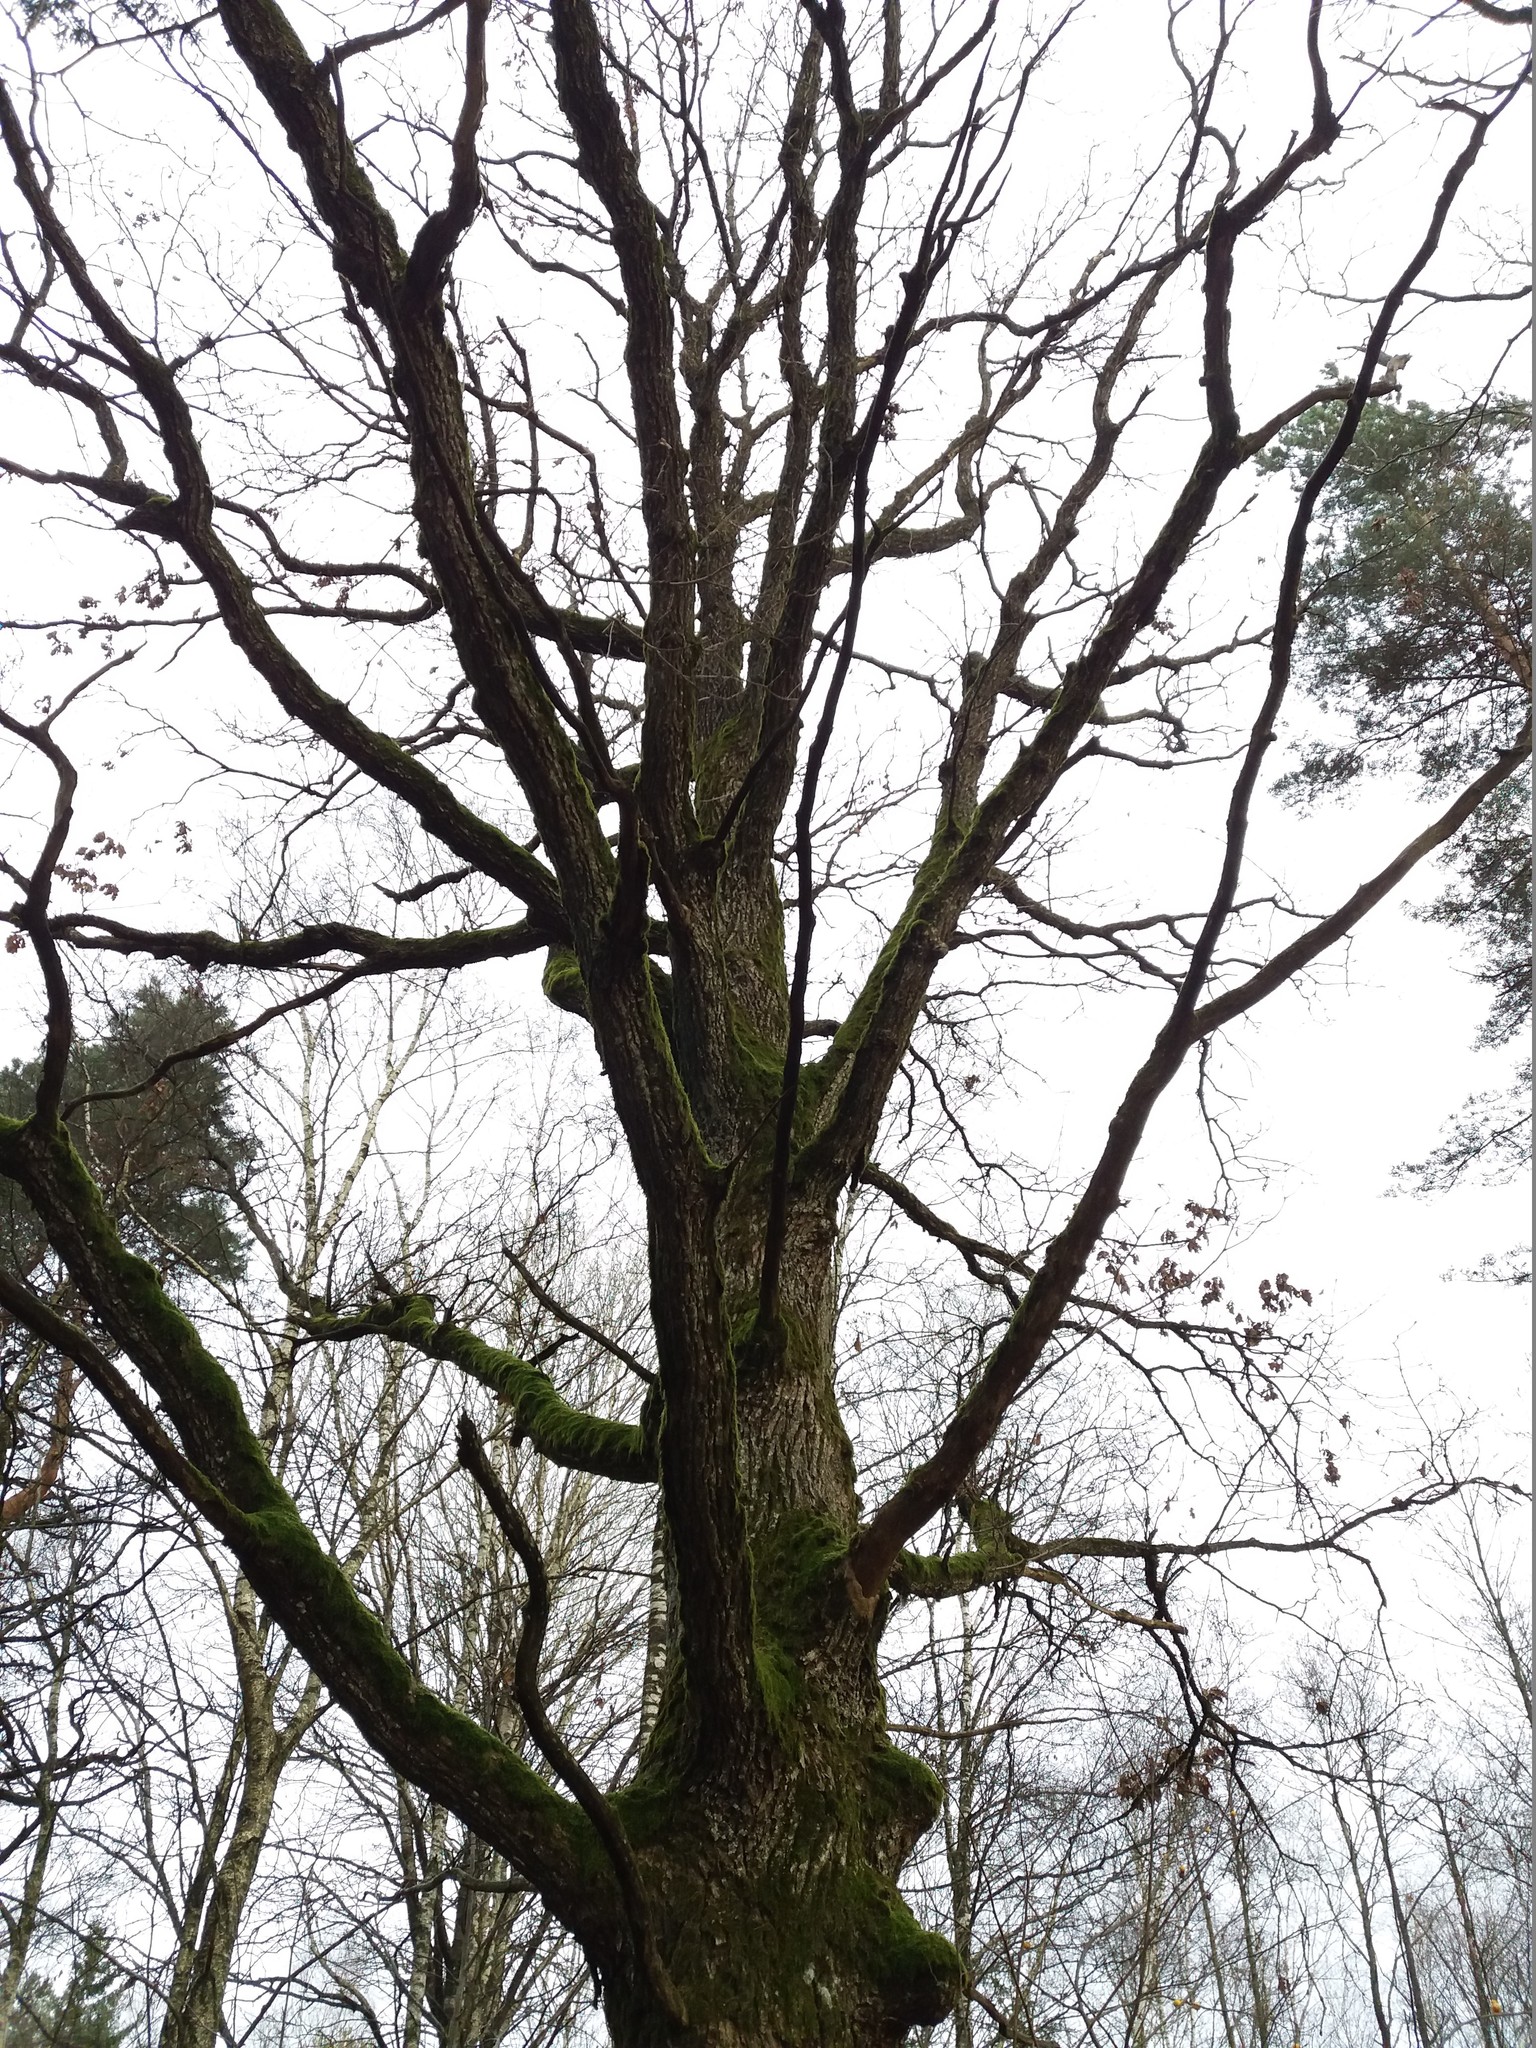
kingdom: Plantae
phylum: Tracheophyta
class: Magnoliopsida
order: Fagales
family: Fagaceae
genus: Quercus
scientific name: Quercus robur
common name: Pedunculate oak
